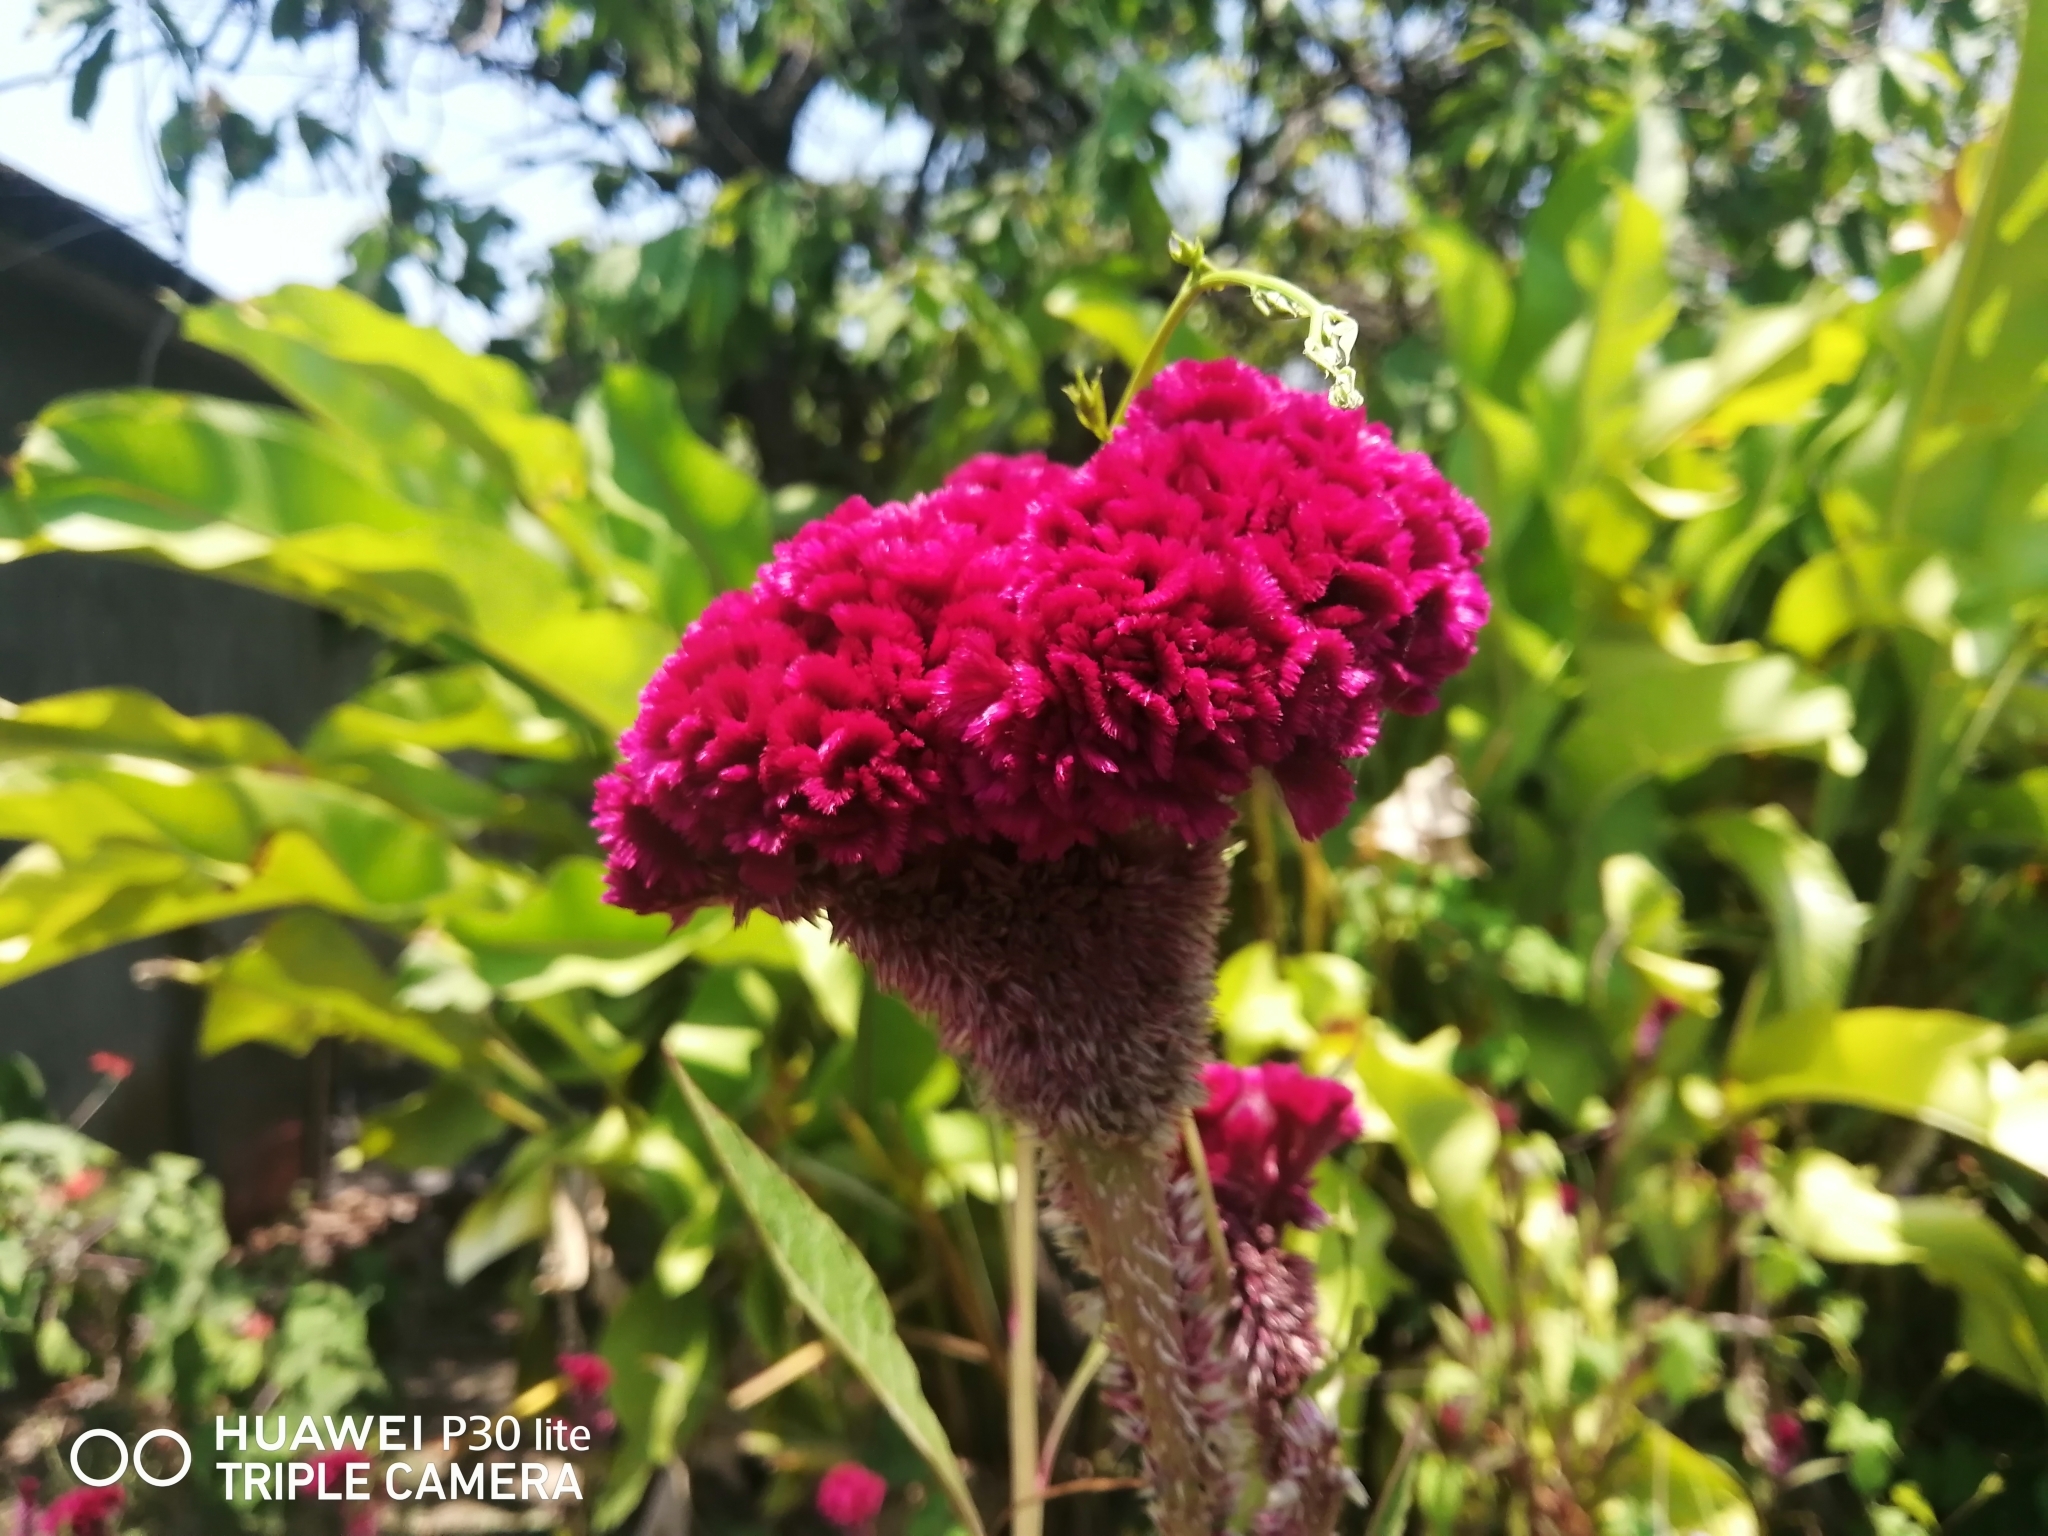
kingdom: Plantae
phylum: Tracheophyta
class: Magnoliopsida
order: Caryophyllales
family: Amaranthaceae
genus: Celosia
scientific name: Celosia argentea
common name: Feather cockscomb
